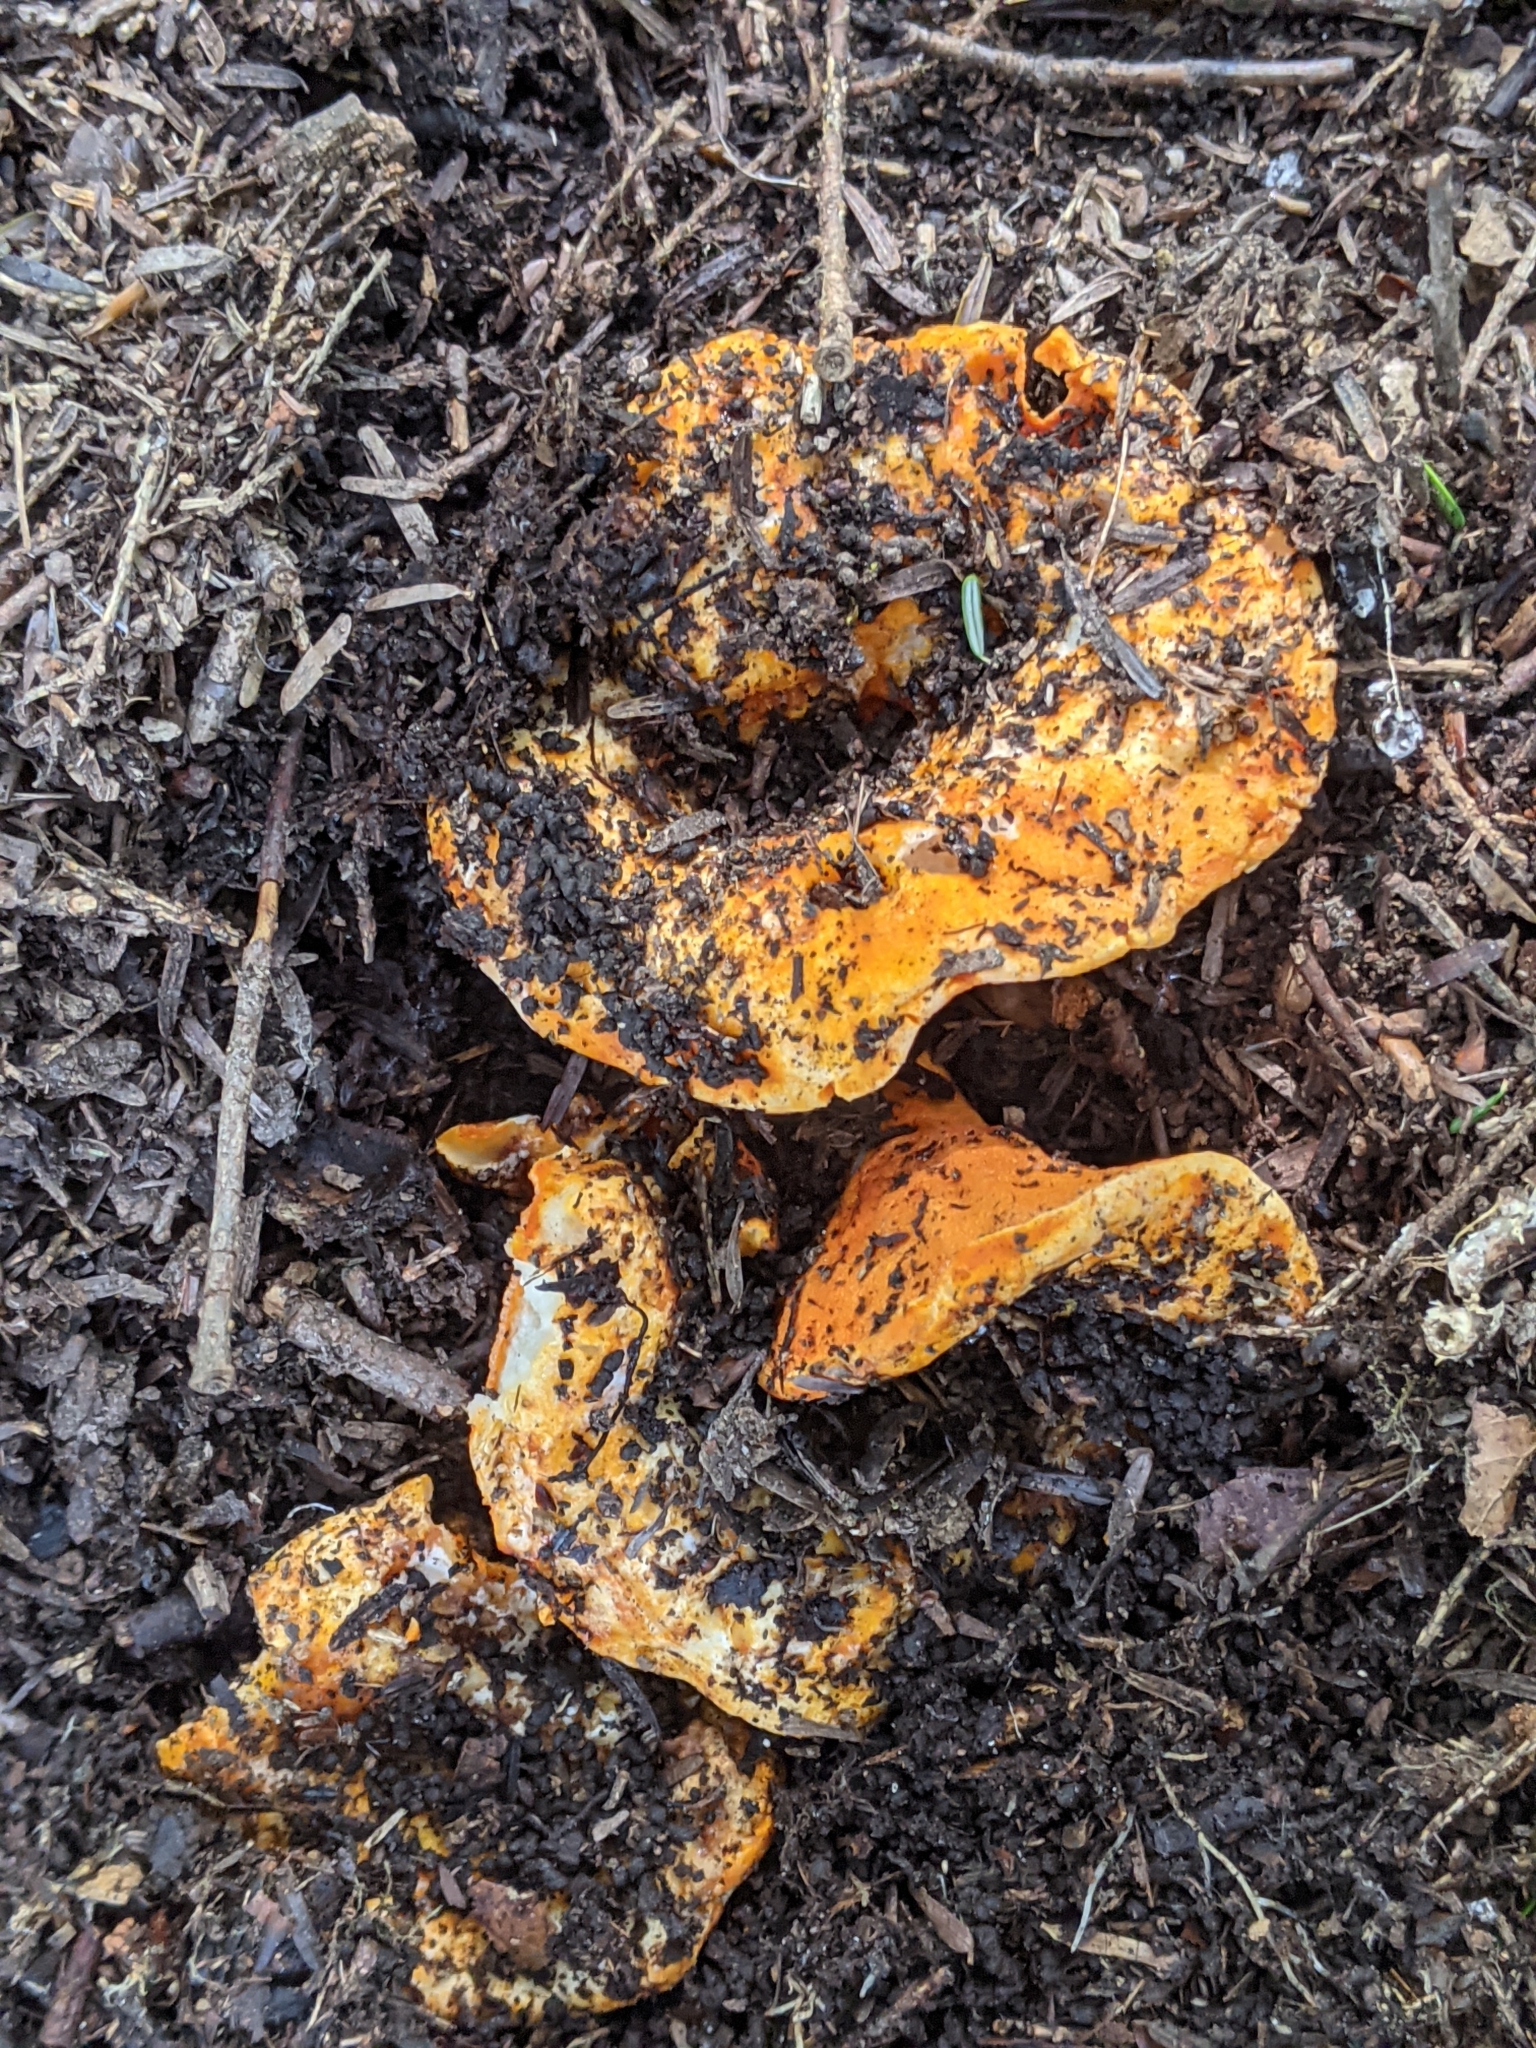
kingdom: Fungi
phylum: Ascomycota
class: Sordariomycetes
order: Hypocreales
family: Hypocreaceae
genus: Hypomyces
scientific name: Hypomyces lactifluorum
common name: Lobster mushroom
